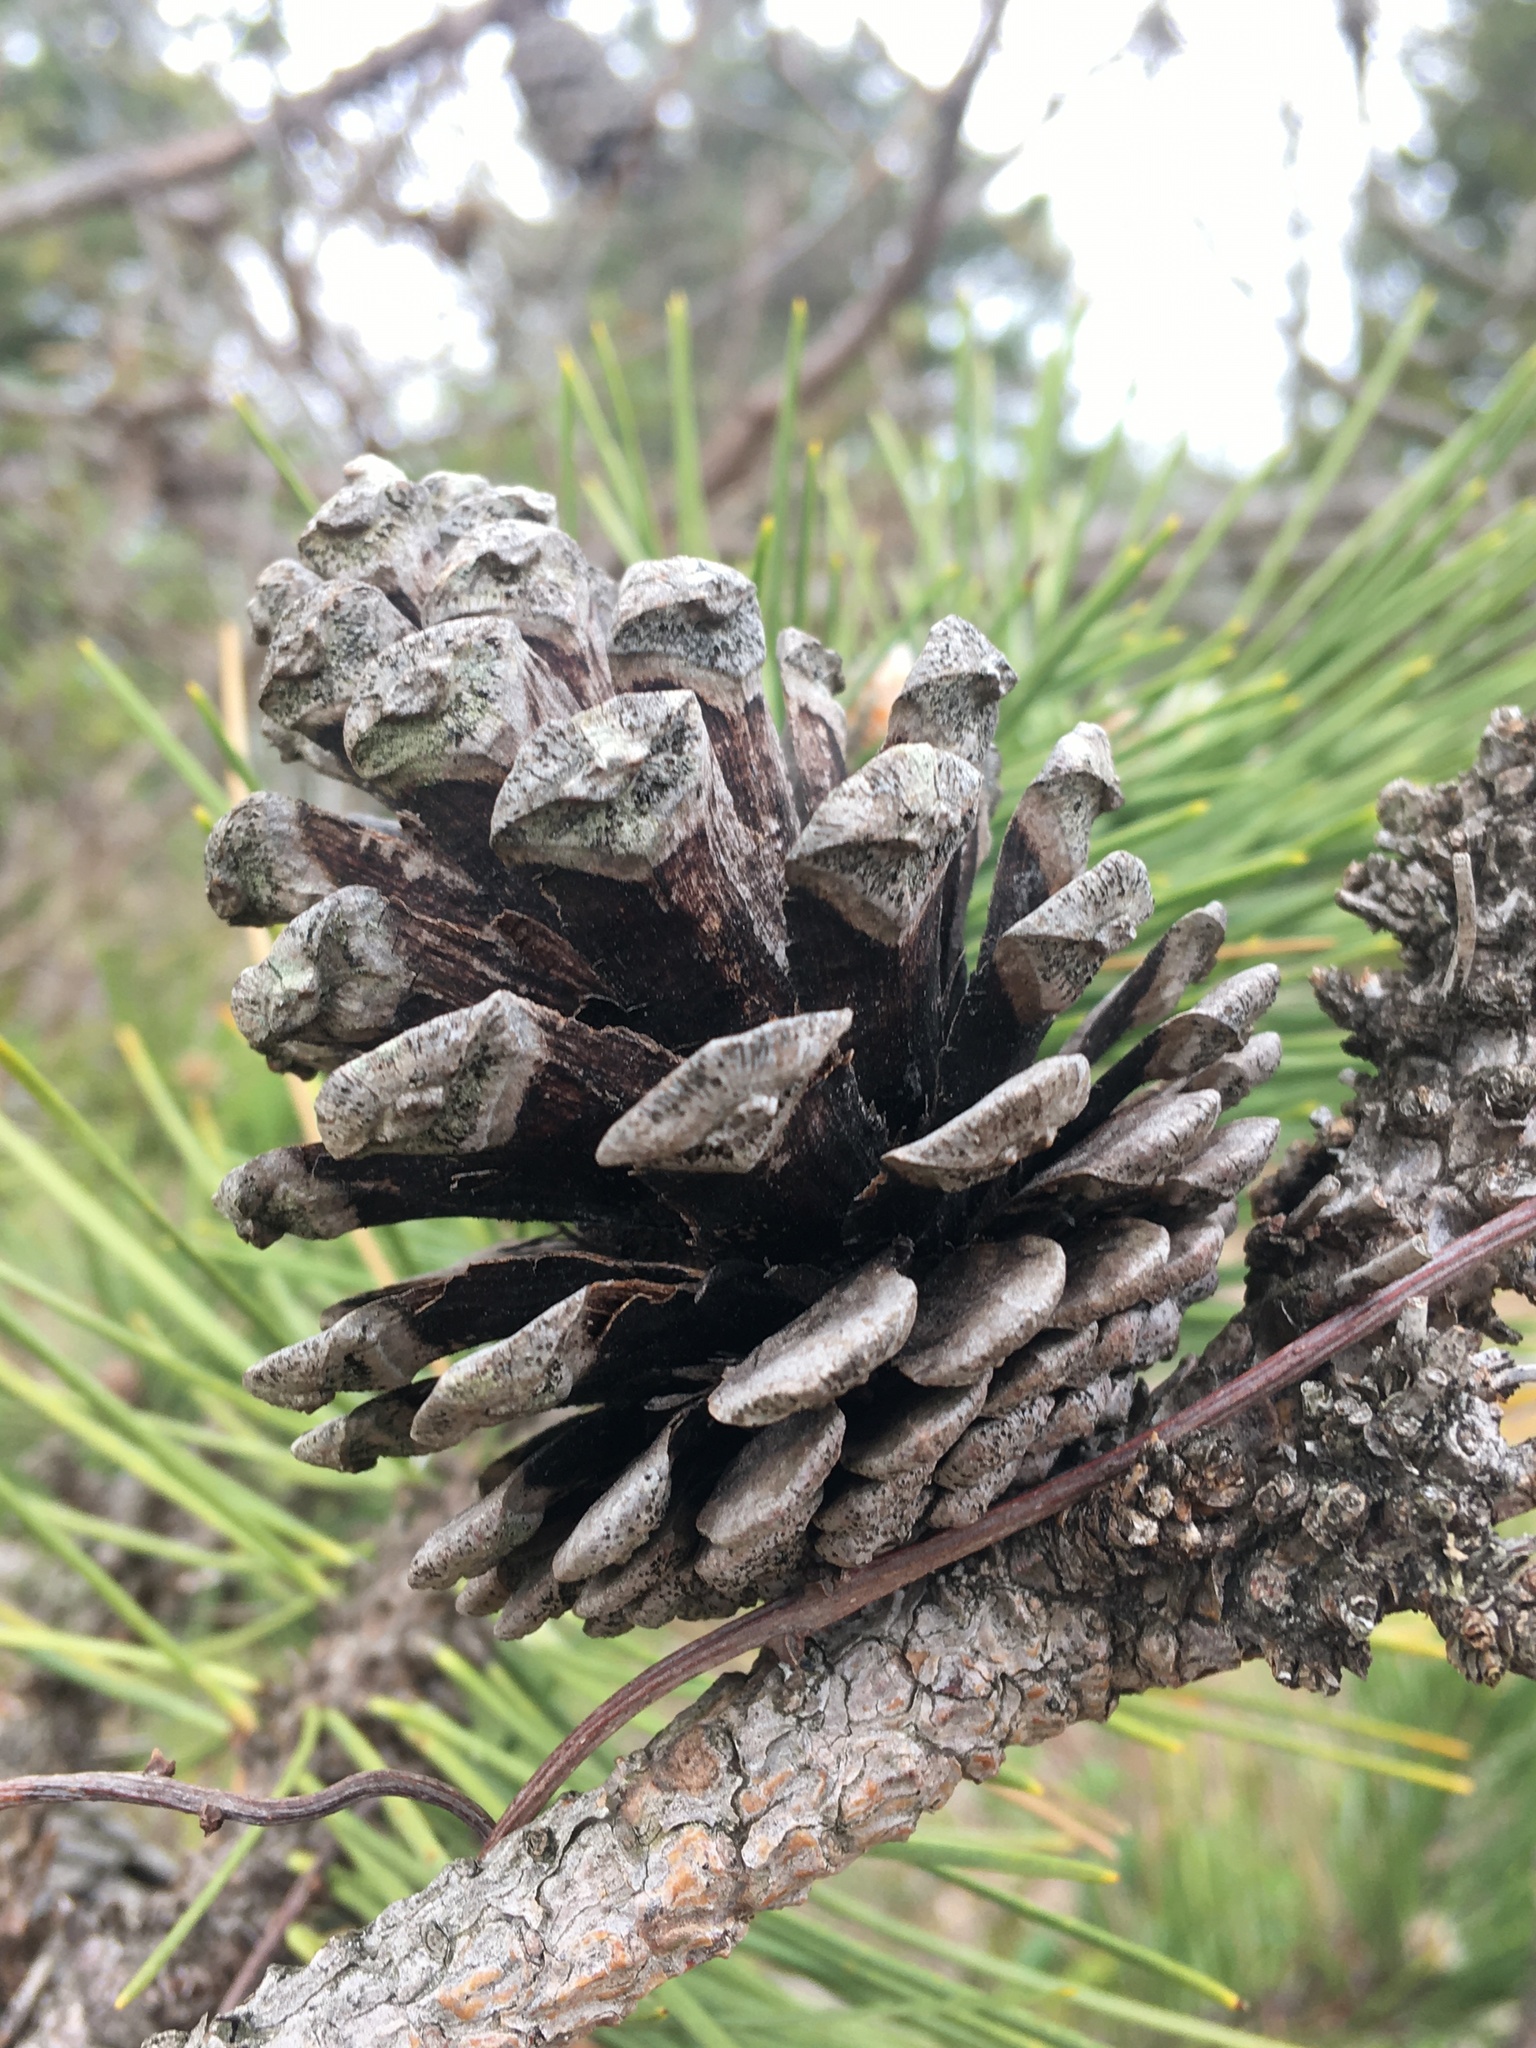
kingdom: Plantae
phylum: Tracheophyta
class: Pinopsida
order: Pinales
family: Pinaceae
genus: Pinus
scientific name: Pinus resinosa
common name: Norway pine
